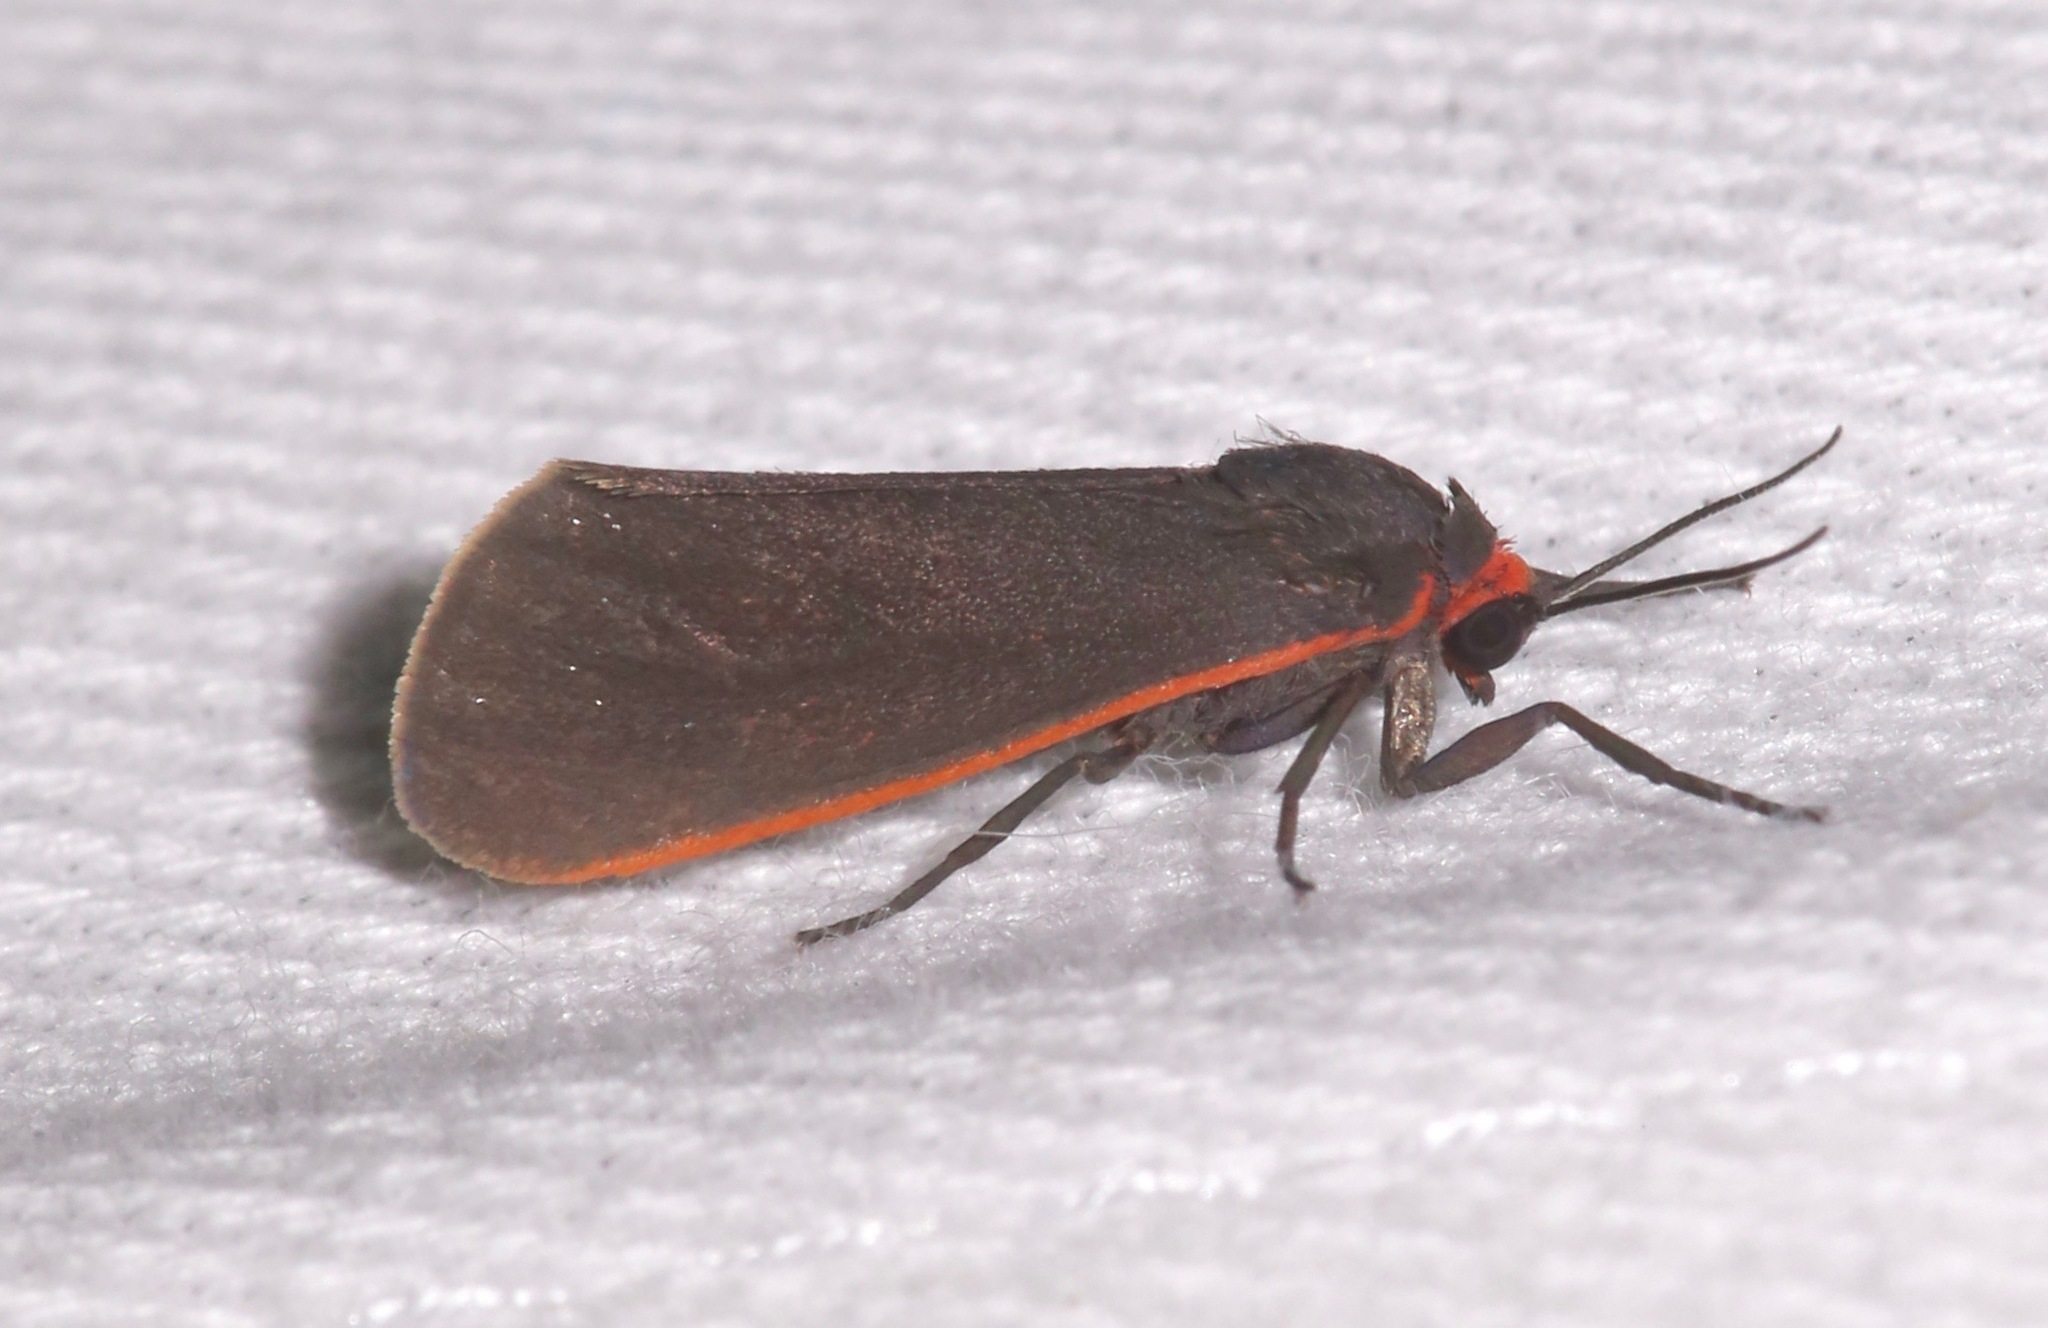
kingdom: Animalia
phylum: Arthropoda
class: Insecta
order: Lepidoptera
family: Erebidae
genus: Virbia
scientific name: Virbia laeta
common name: Joyful holomelina moth
